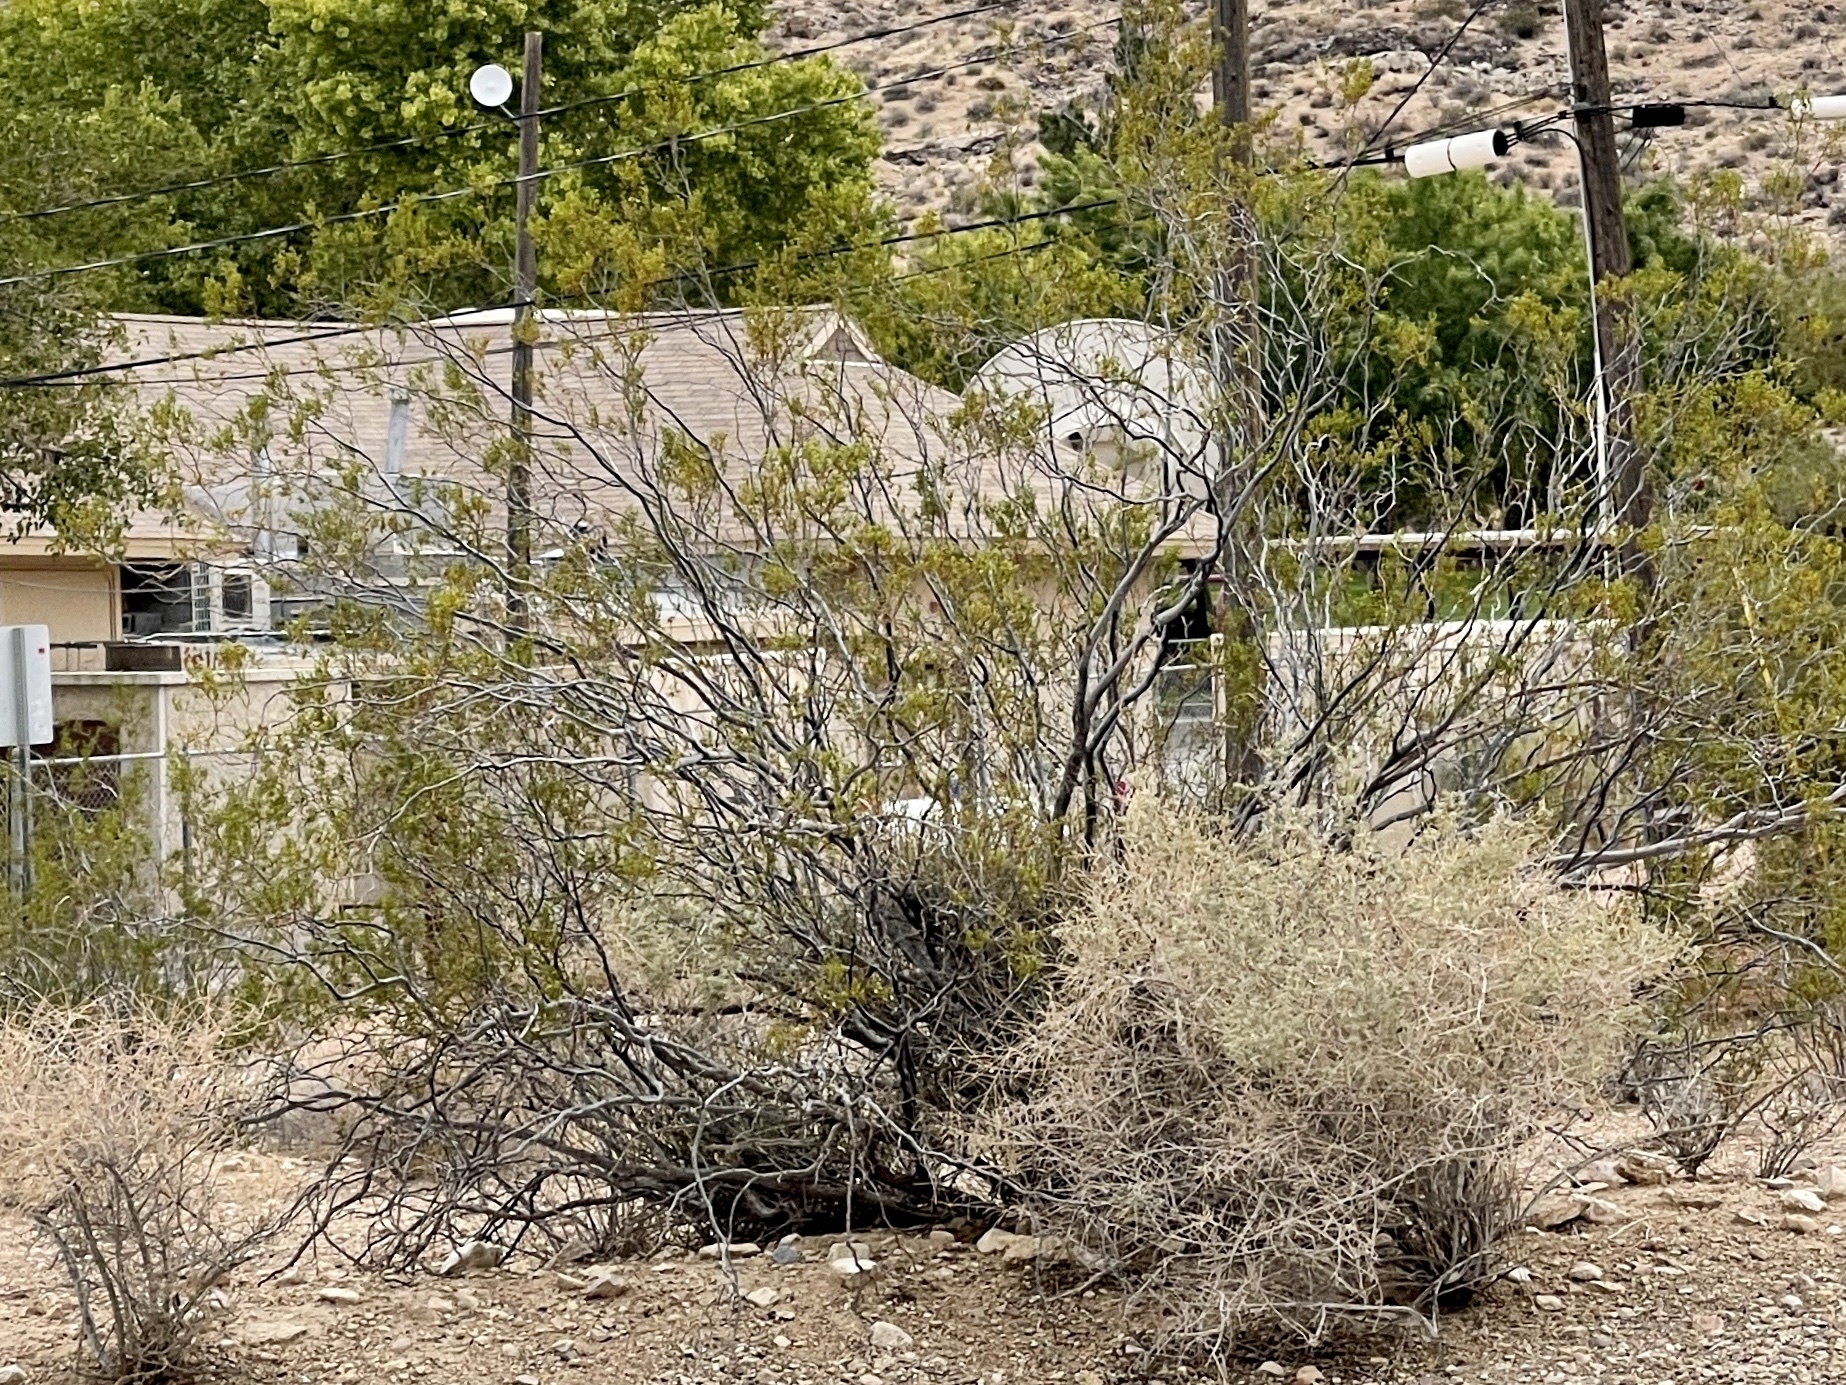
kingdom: Plantae
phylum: Tracheophyta
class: Magnoliopsida
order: Zygophyllales
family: Zygophyllaceae
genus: Larrea
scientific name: Larrea tridentata
